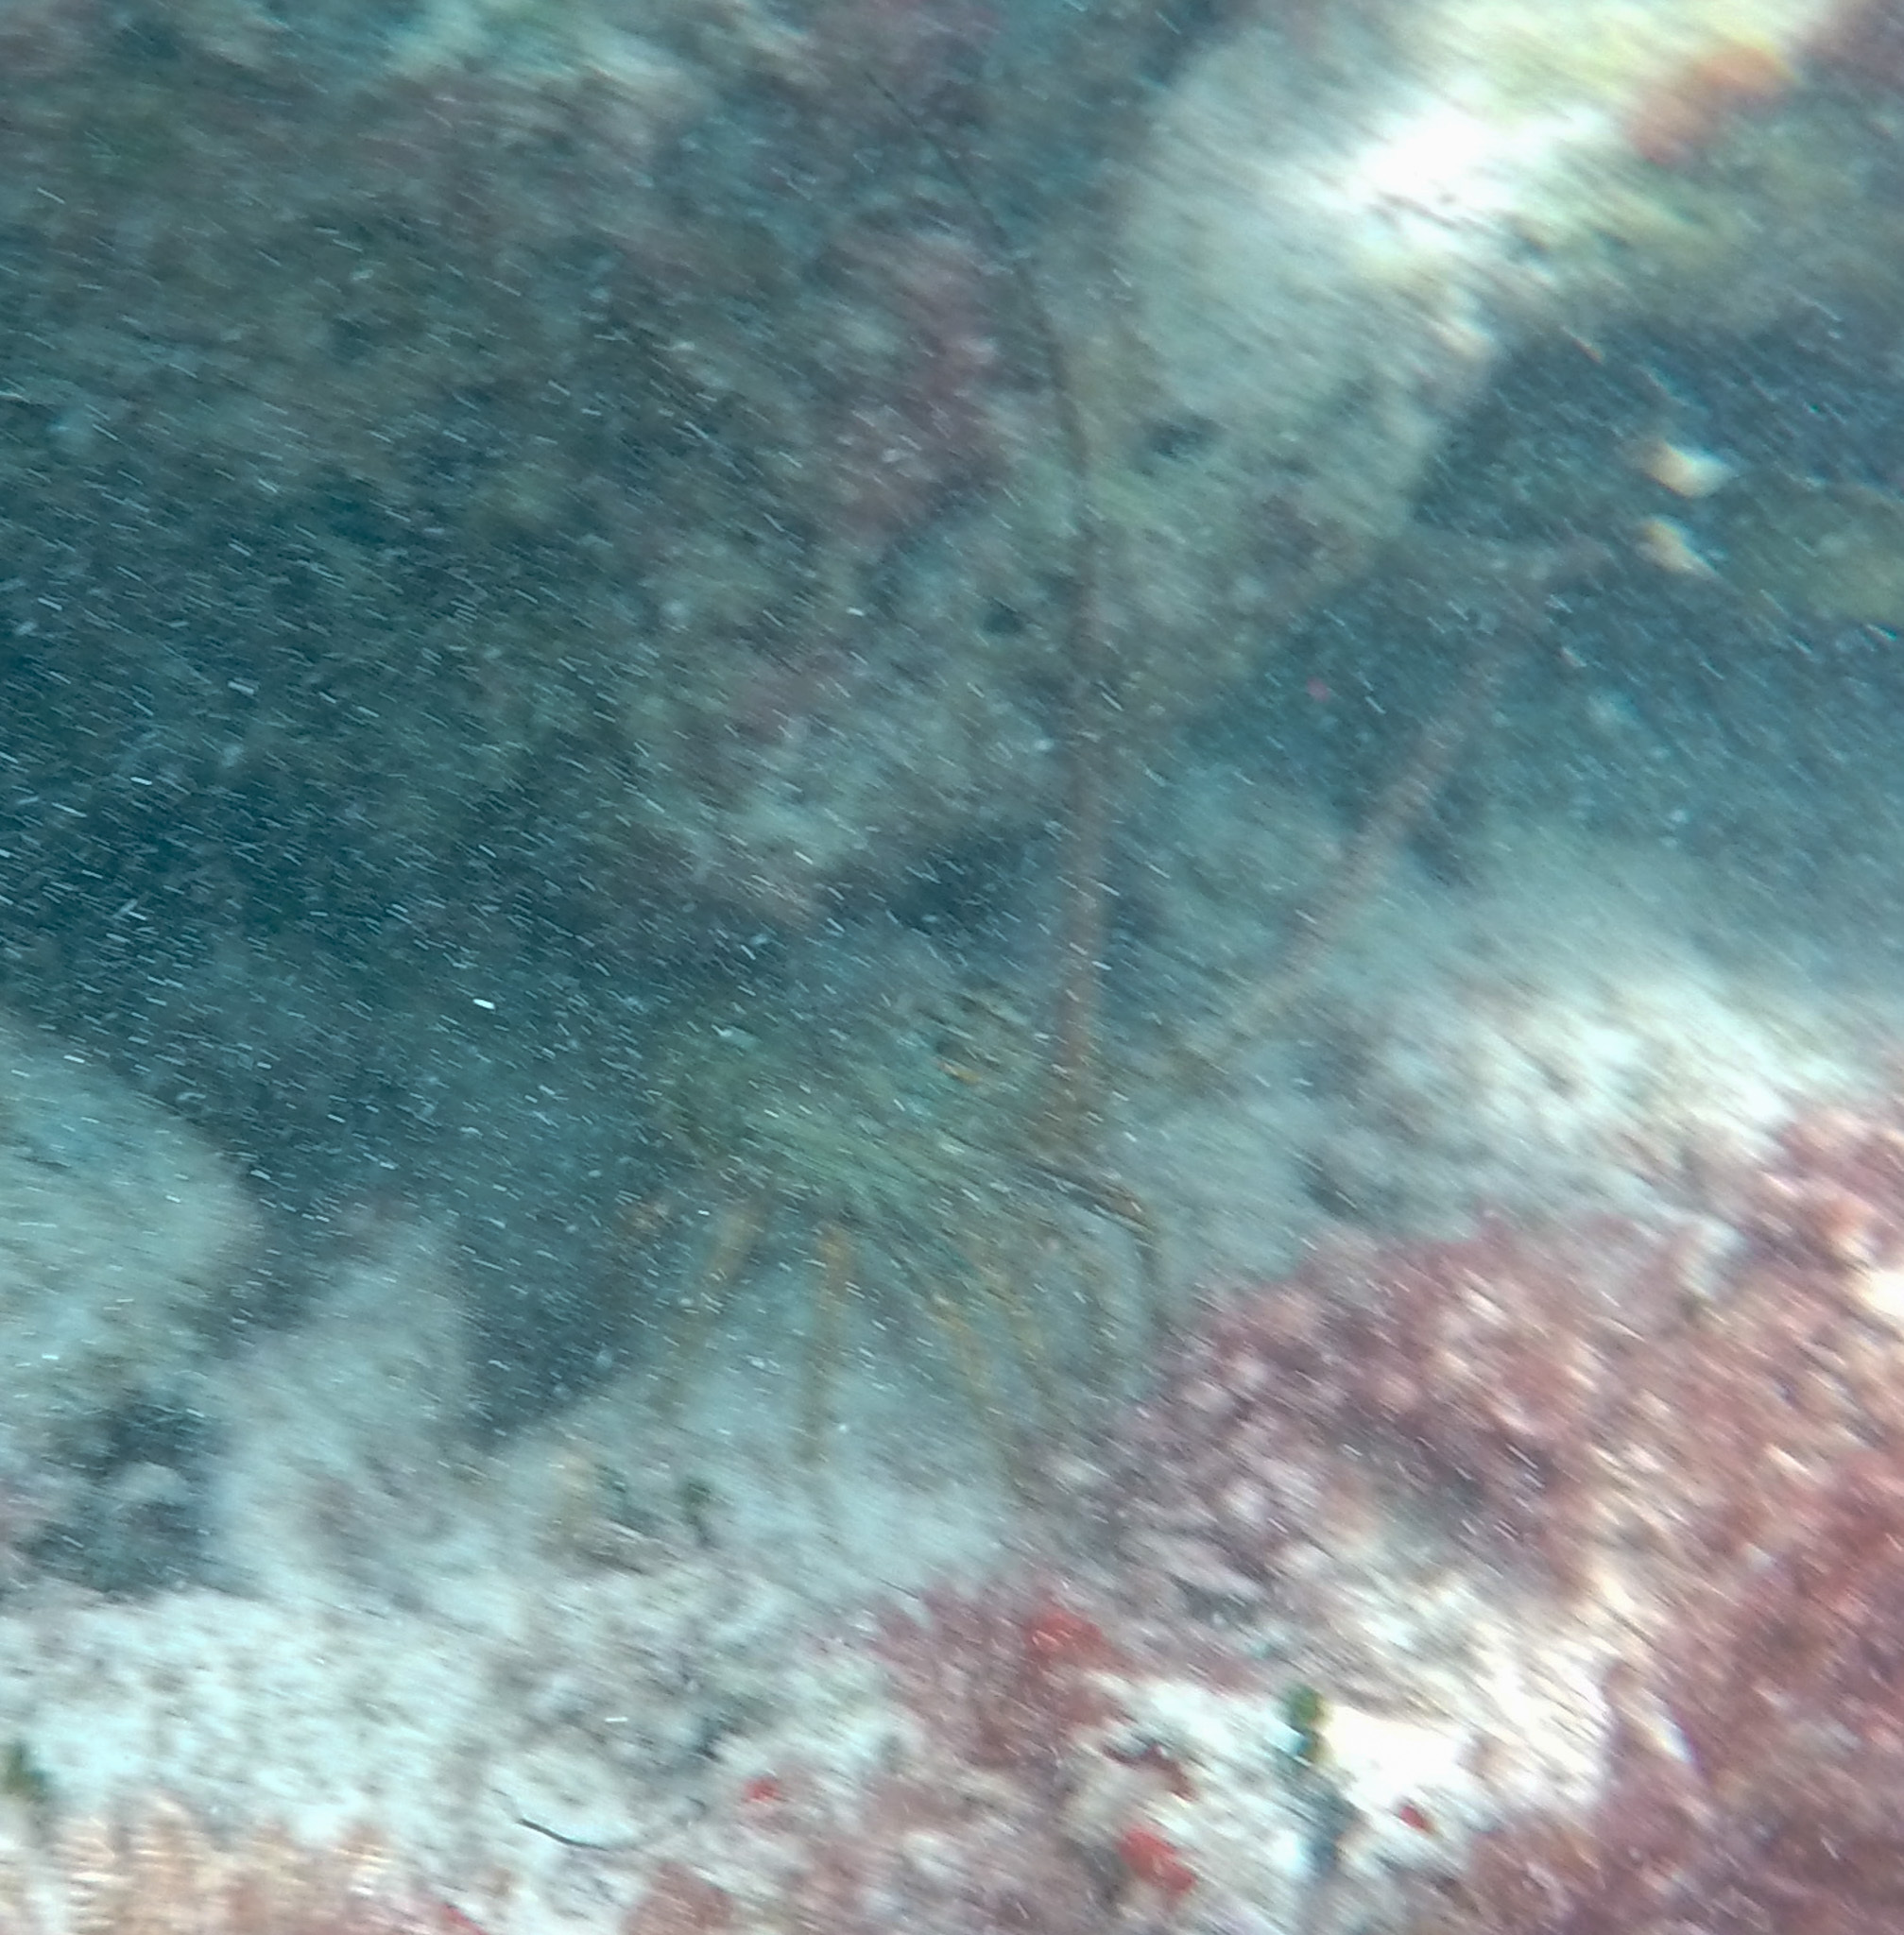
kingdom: Animalia
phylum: Arthropoda
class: Malacostraca
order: Decapoda
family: Palinuridae
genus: Panulirus
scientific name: Panulirus argus
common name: Caribbean spiny lobster
